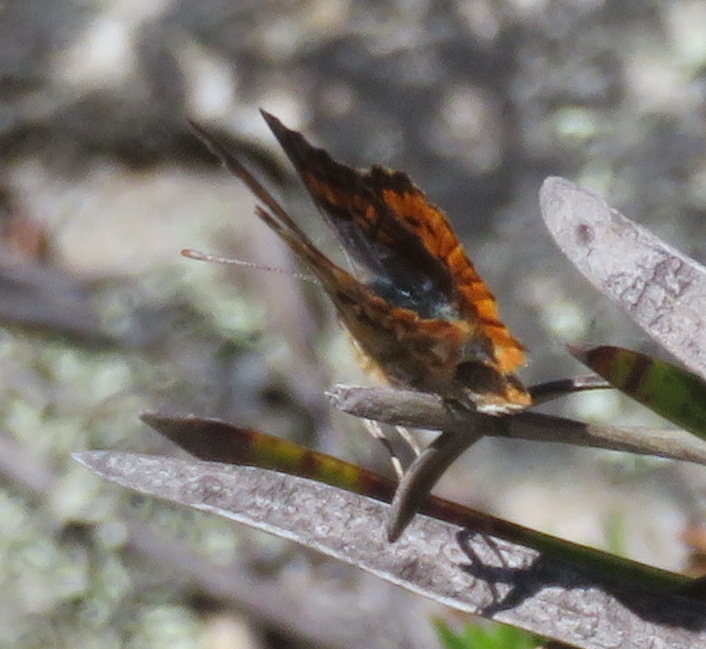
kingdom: Animalia
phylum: Arthropoda
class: Insecta
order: Lepidoptera
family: Lycaenidae
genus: Chrysoritis
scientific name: Chrysoritis pyramus
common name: Pyramus opal
